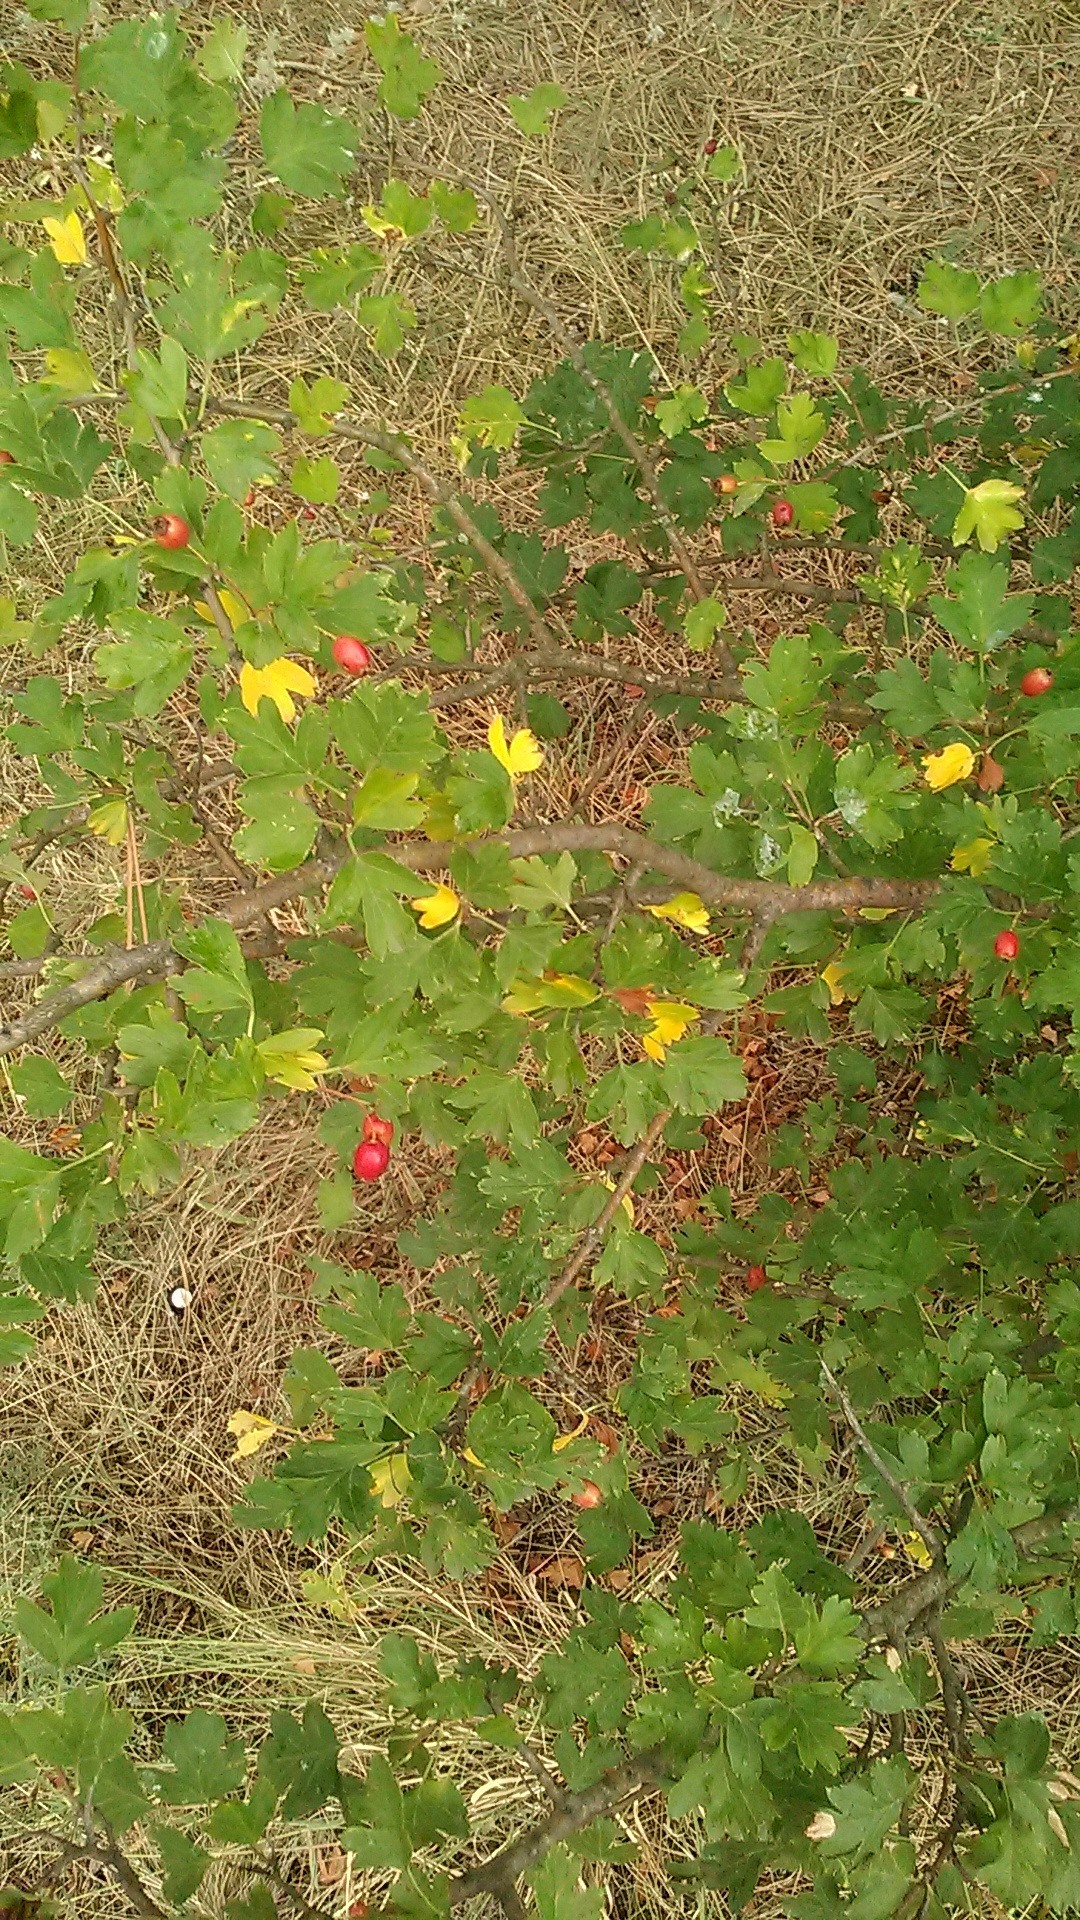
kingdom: Plantae
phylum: Tracheophyta
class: Magnoliopsida
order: Rosales
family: Rosaceae
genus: Crataegus
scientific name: Crataegus monogyna
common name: Hawthorn
